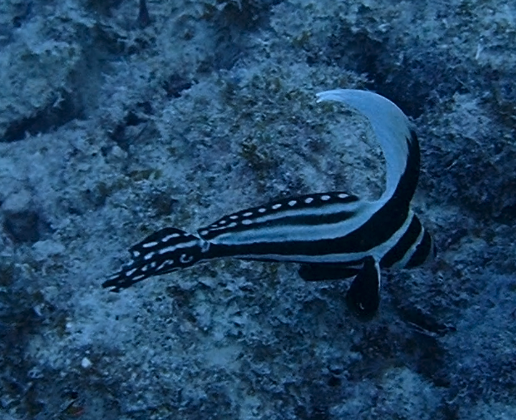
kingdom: Animalia
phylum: Chordata
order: Perciformes
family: Sciaenidae
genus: Equetus
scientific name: Equetus punctatus
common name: Spotted drum
